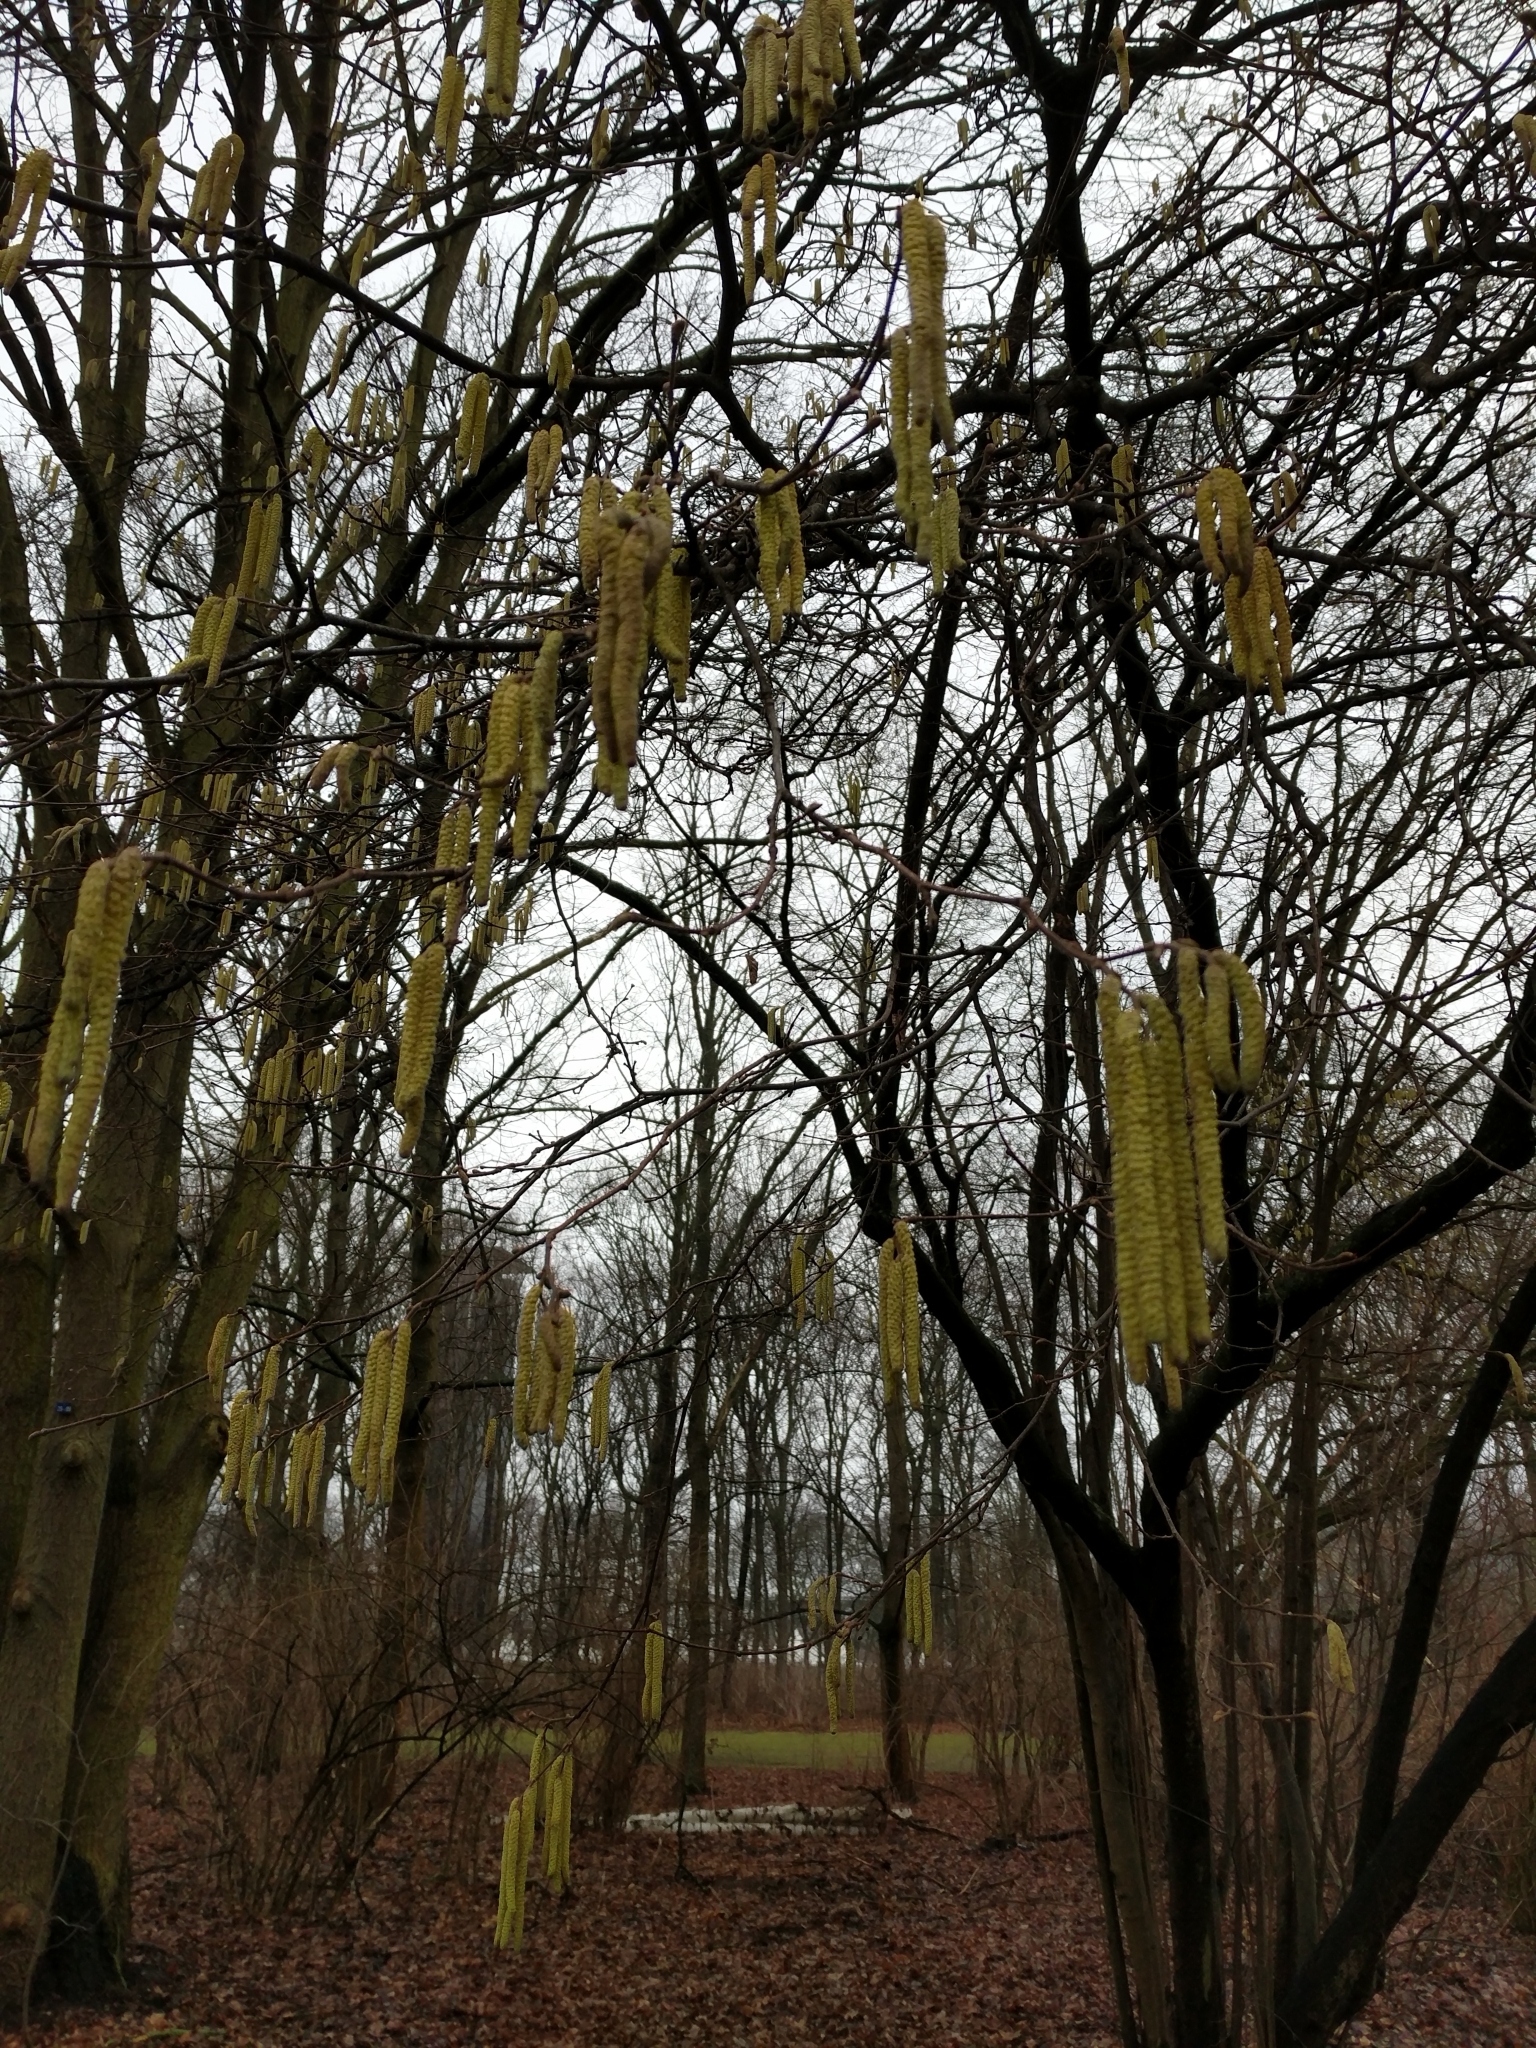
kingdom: Plantae
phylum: Tracheophyta
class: Magnoliopsida
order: Fagales
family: Betulaceae
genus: Corylus
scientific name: Corylus avellana
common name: European hazel
